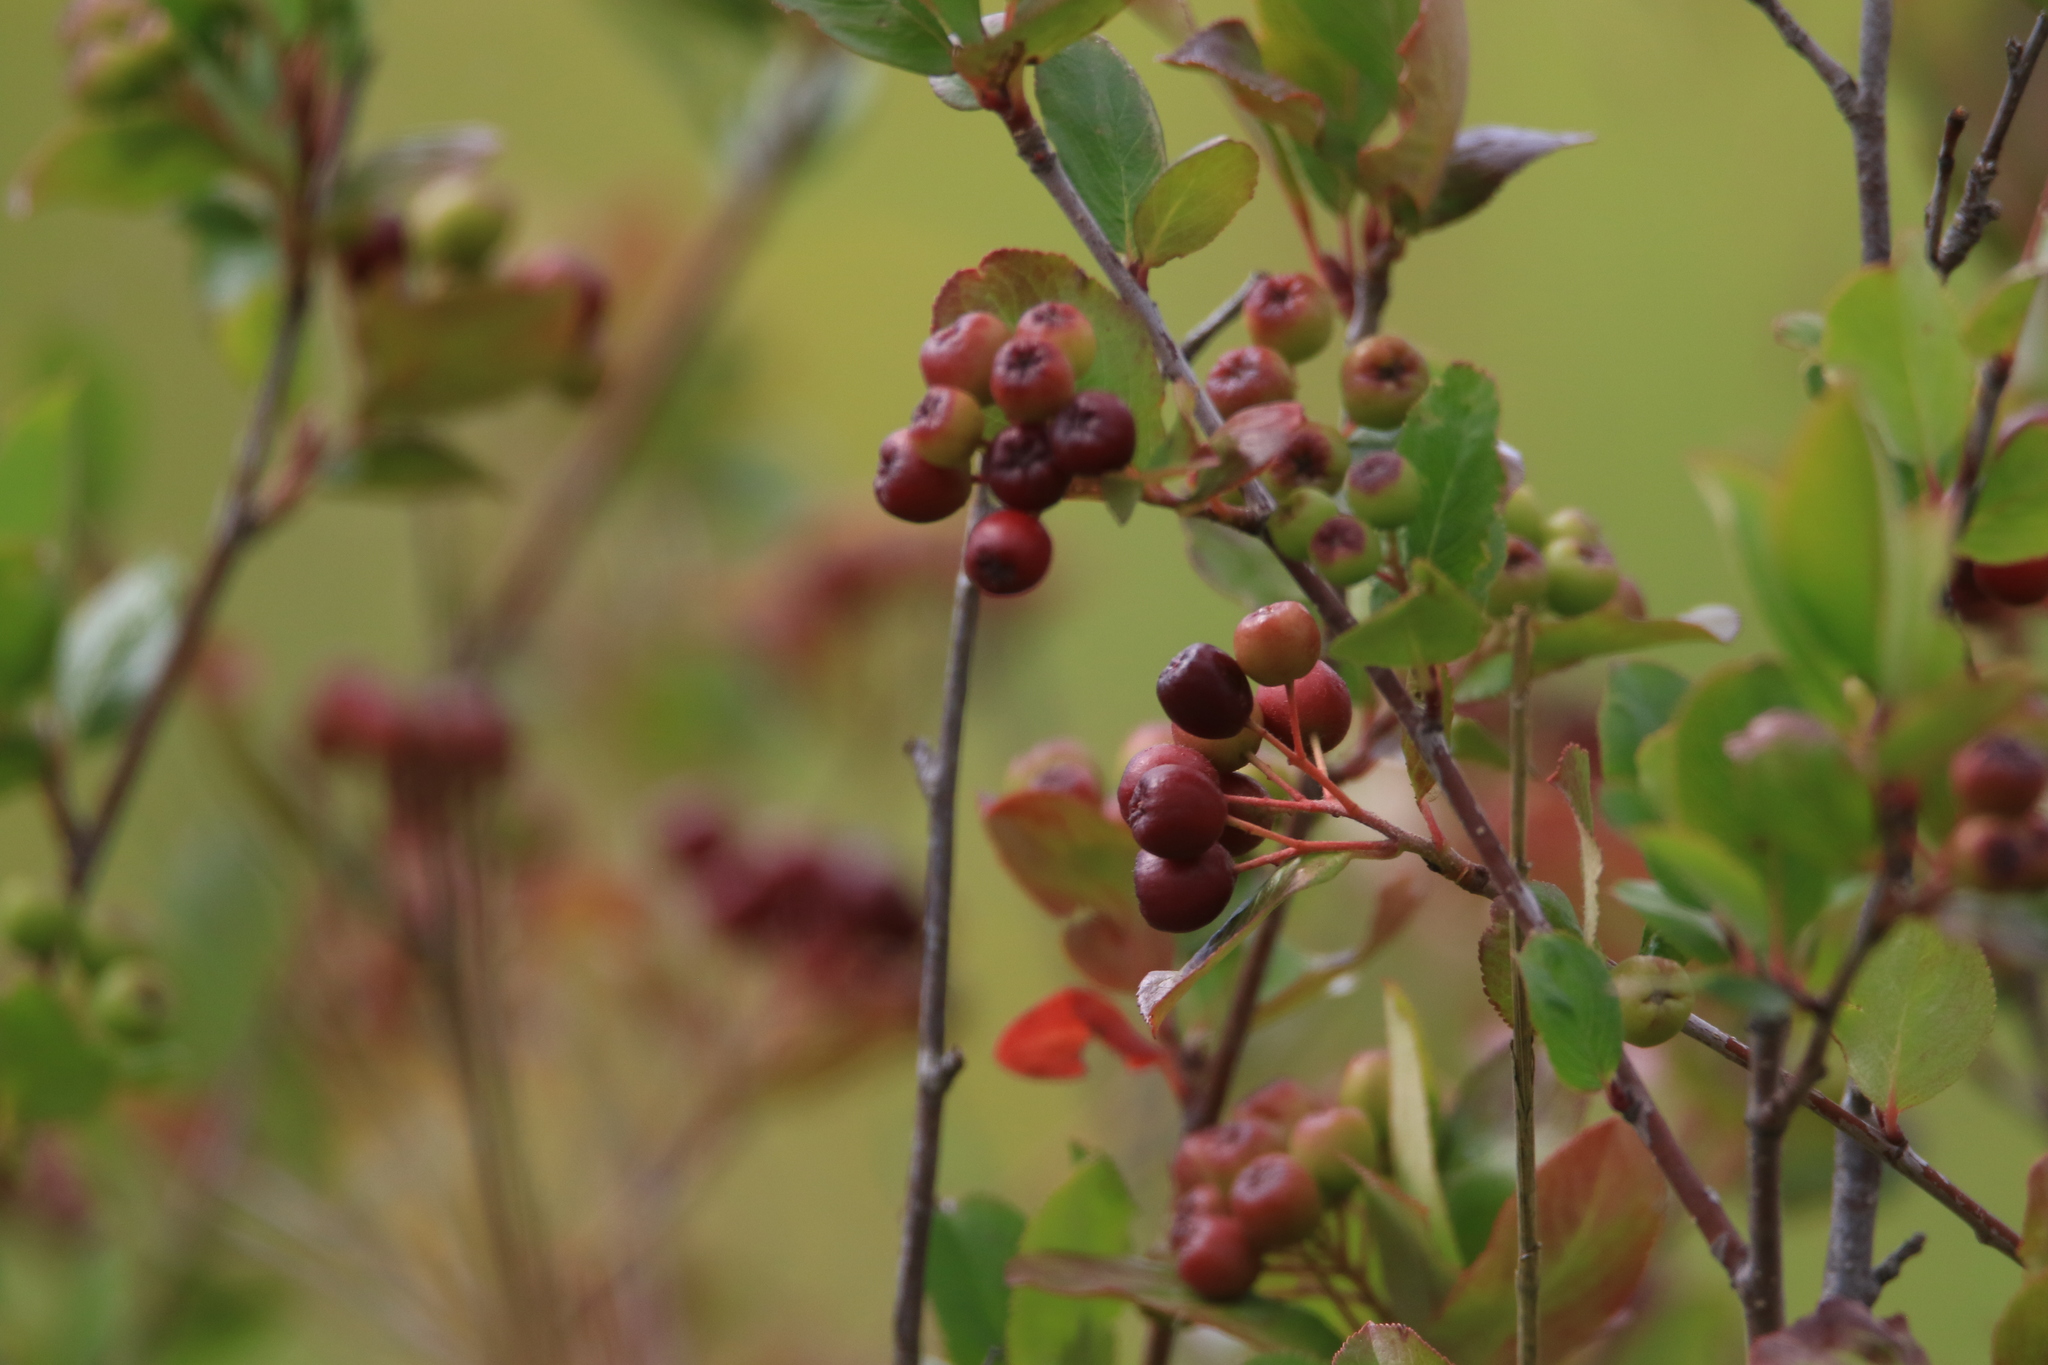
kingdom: Plantae
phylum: Tracheophyta
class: Magnoliopsida
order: Rosales
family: Rosaceae
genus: Sorbaronia
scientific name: Sorbaronia arsenii
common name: Arsène's mountain-ash
